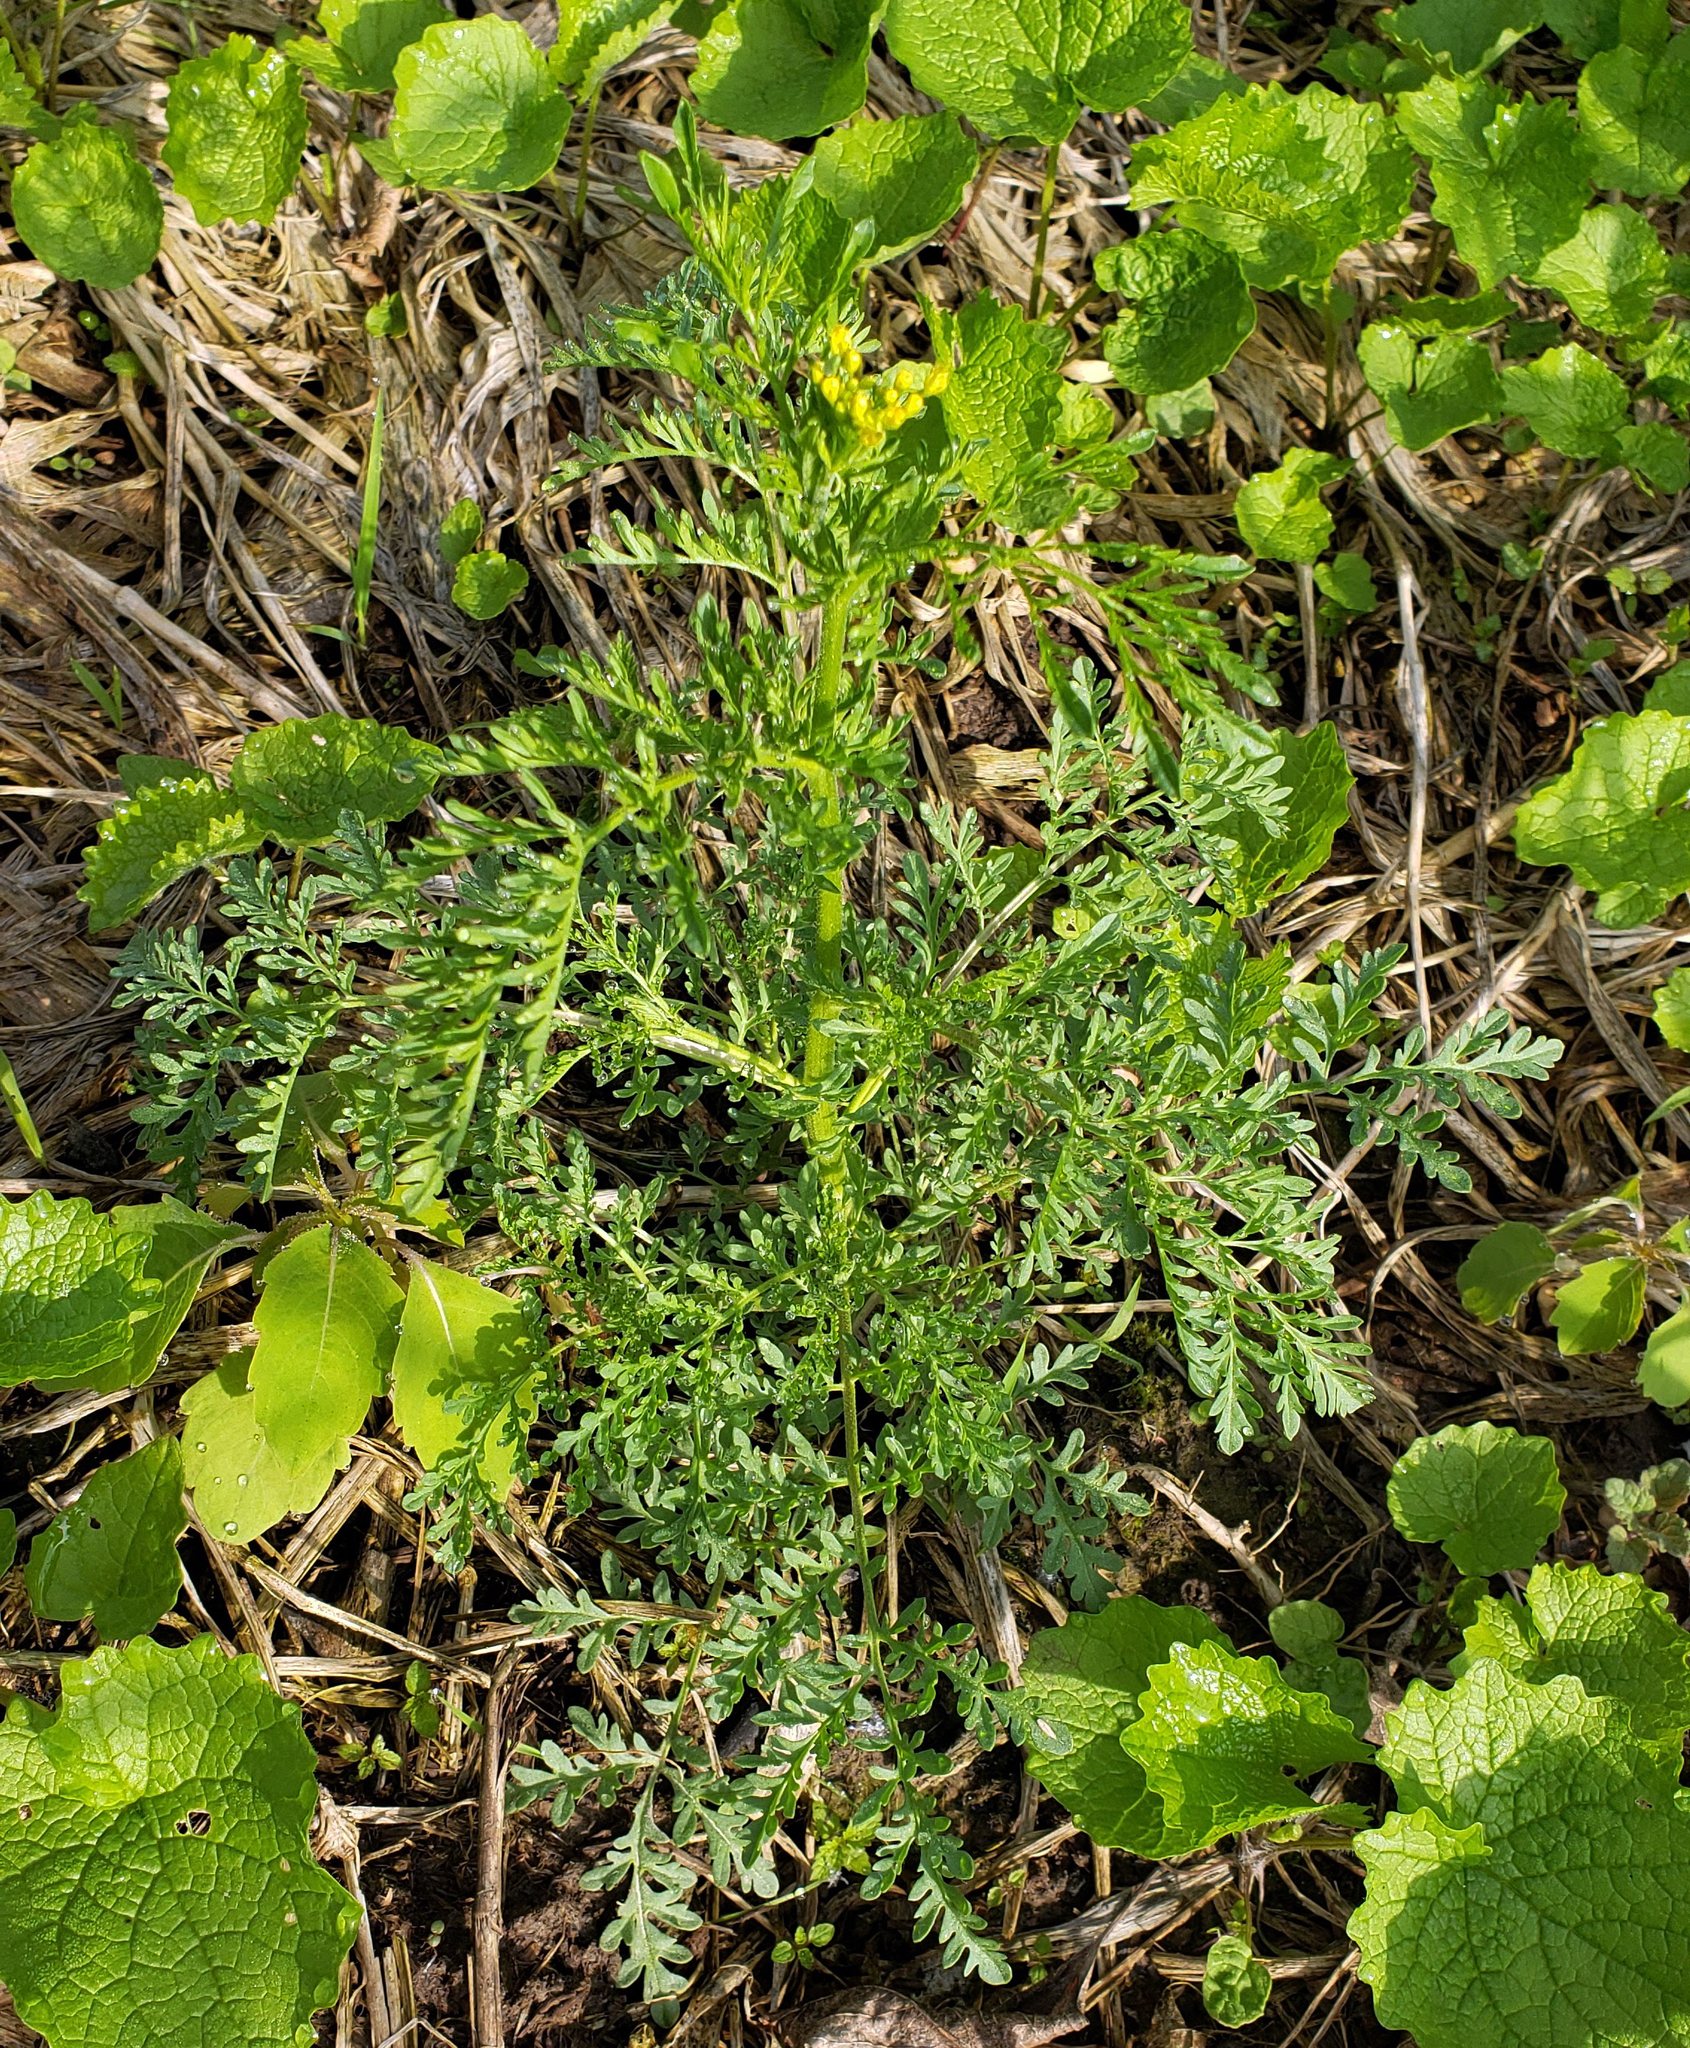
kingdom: Plantae
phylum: Tracheophyta
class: Magnoliopsida
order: Brassicales
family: Brassicaceae
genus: Descurainia
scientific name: Descurainia pinnata
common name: Western tansy mustard
